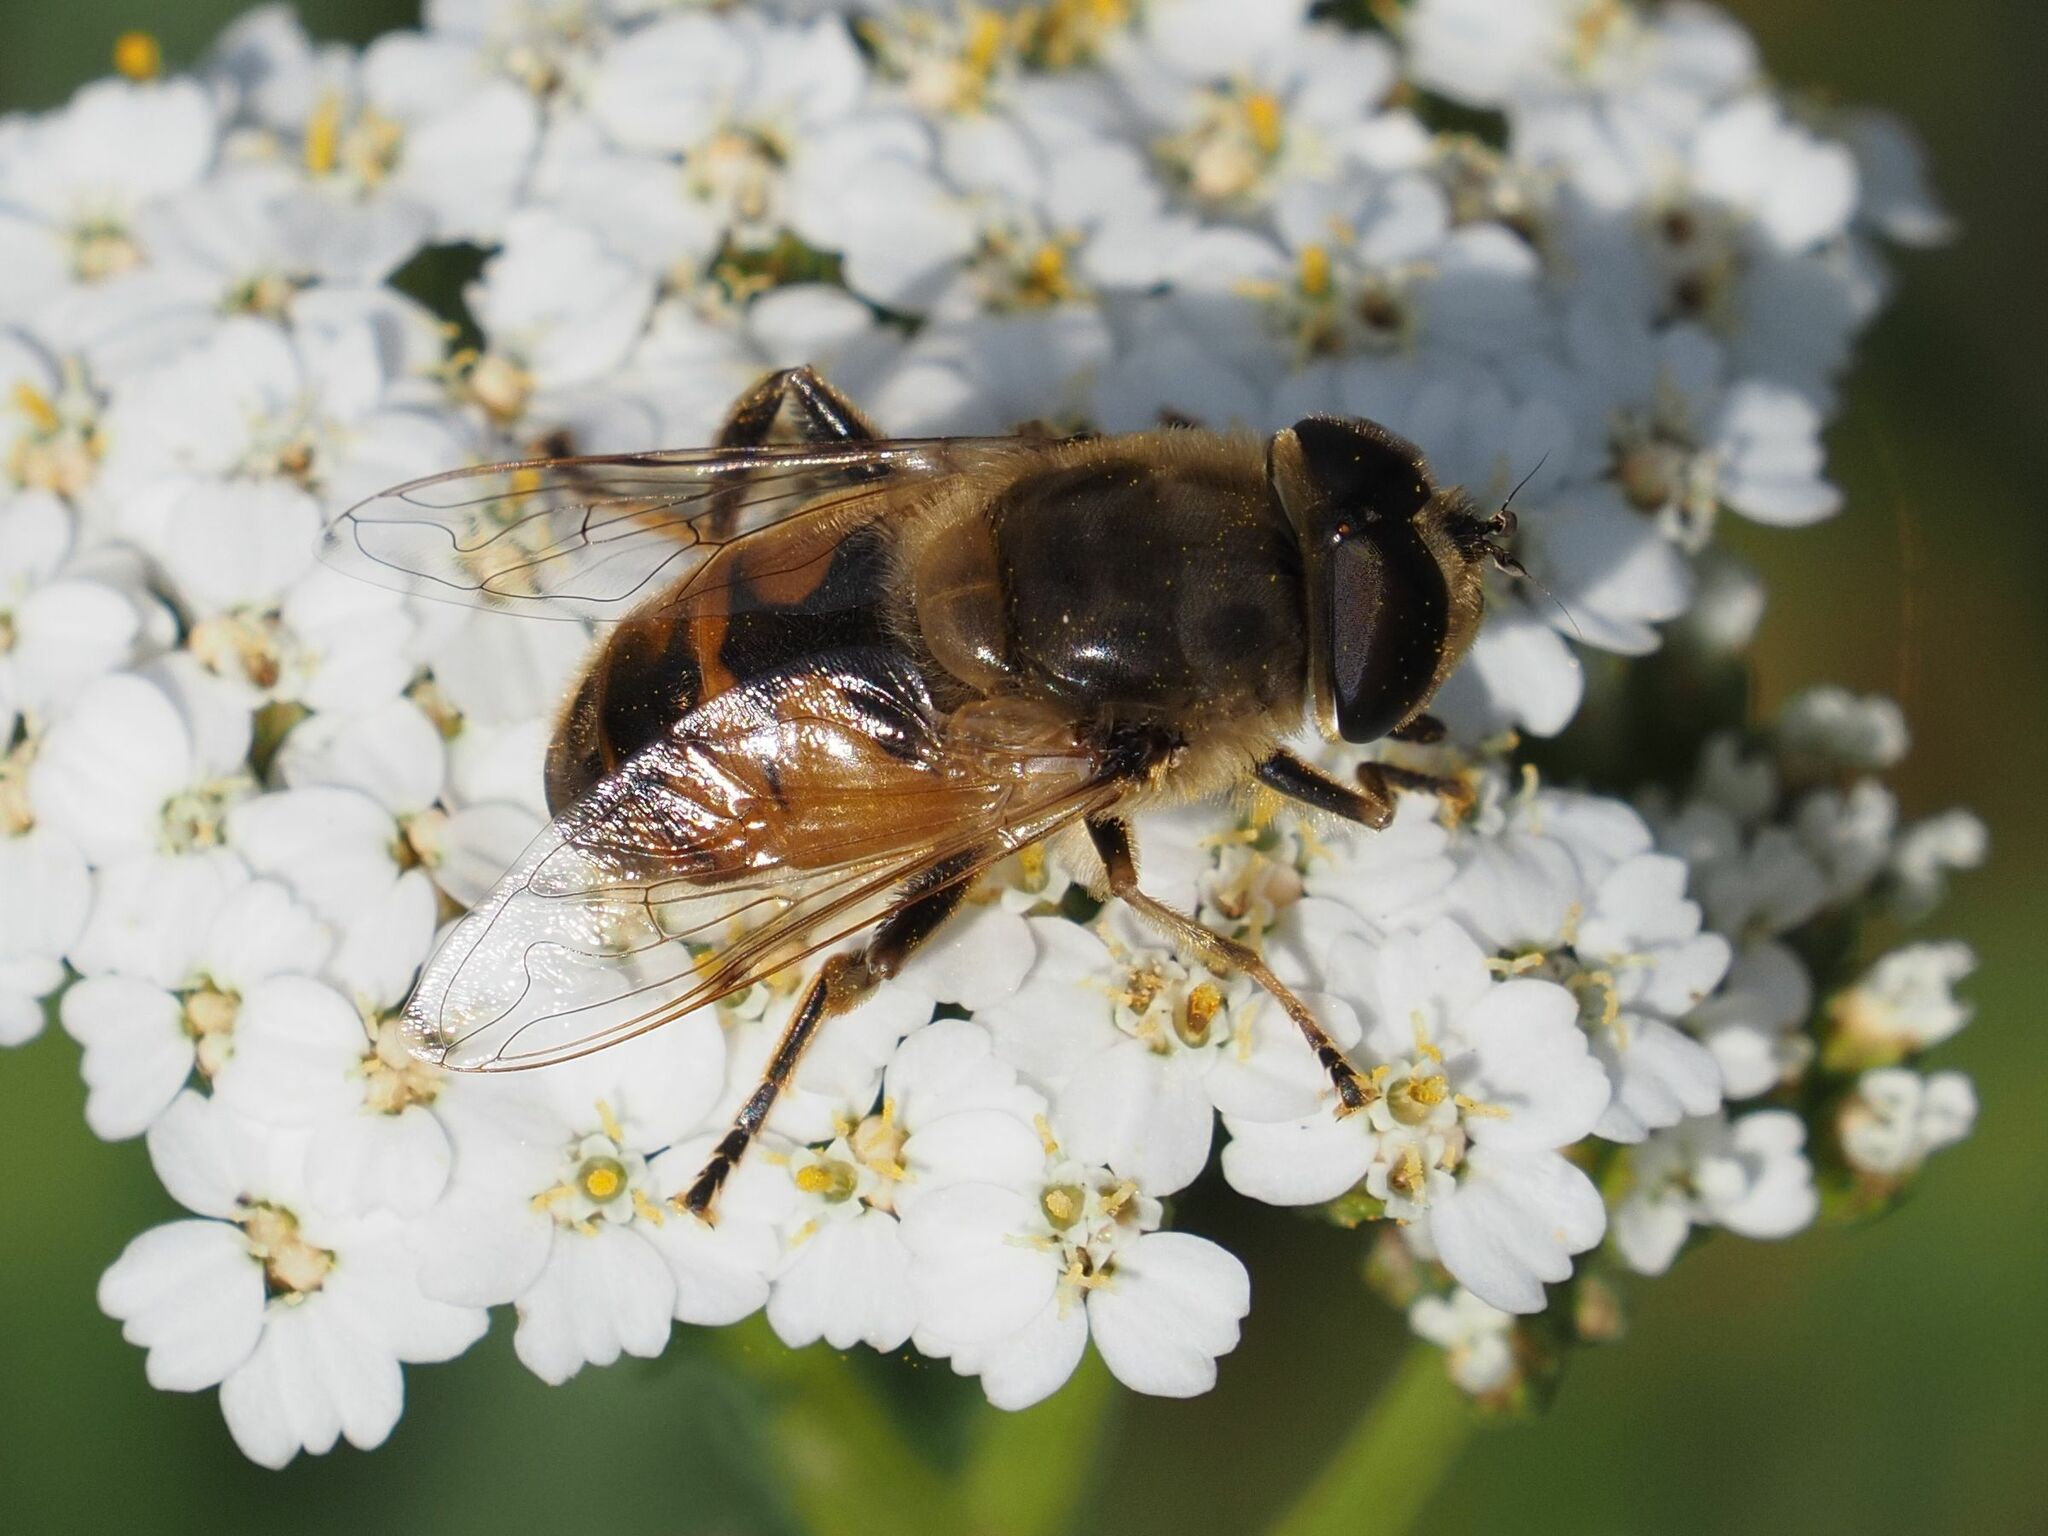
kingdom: Animalia
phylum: Arthropoda
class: Insecta
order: Diptera
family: Syrphidae
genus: Eristalis
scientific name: Eristalis tenax
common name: Drone fly
